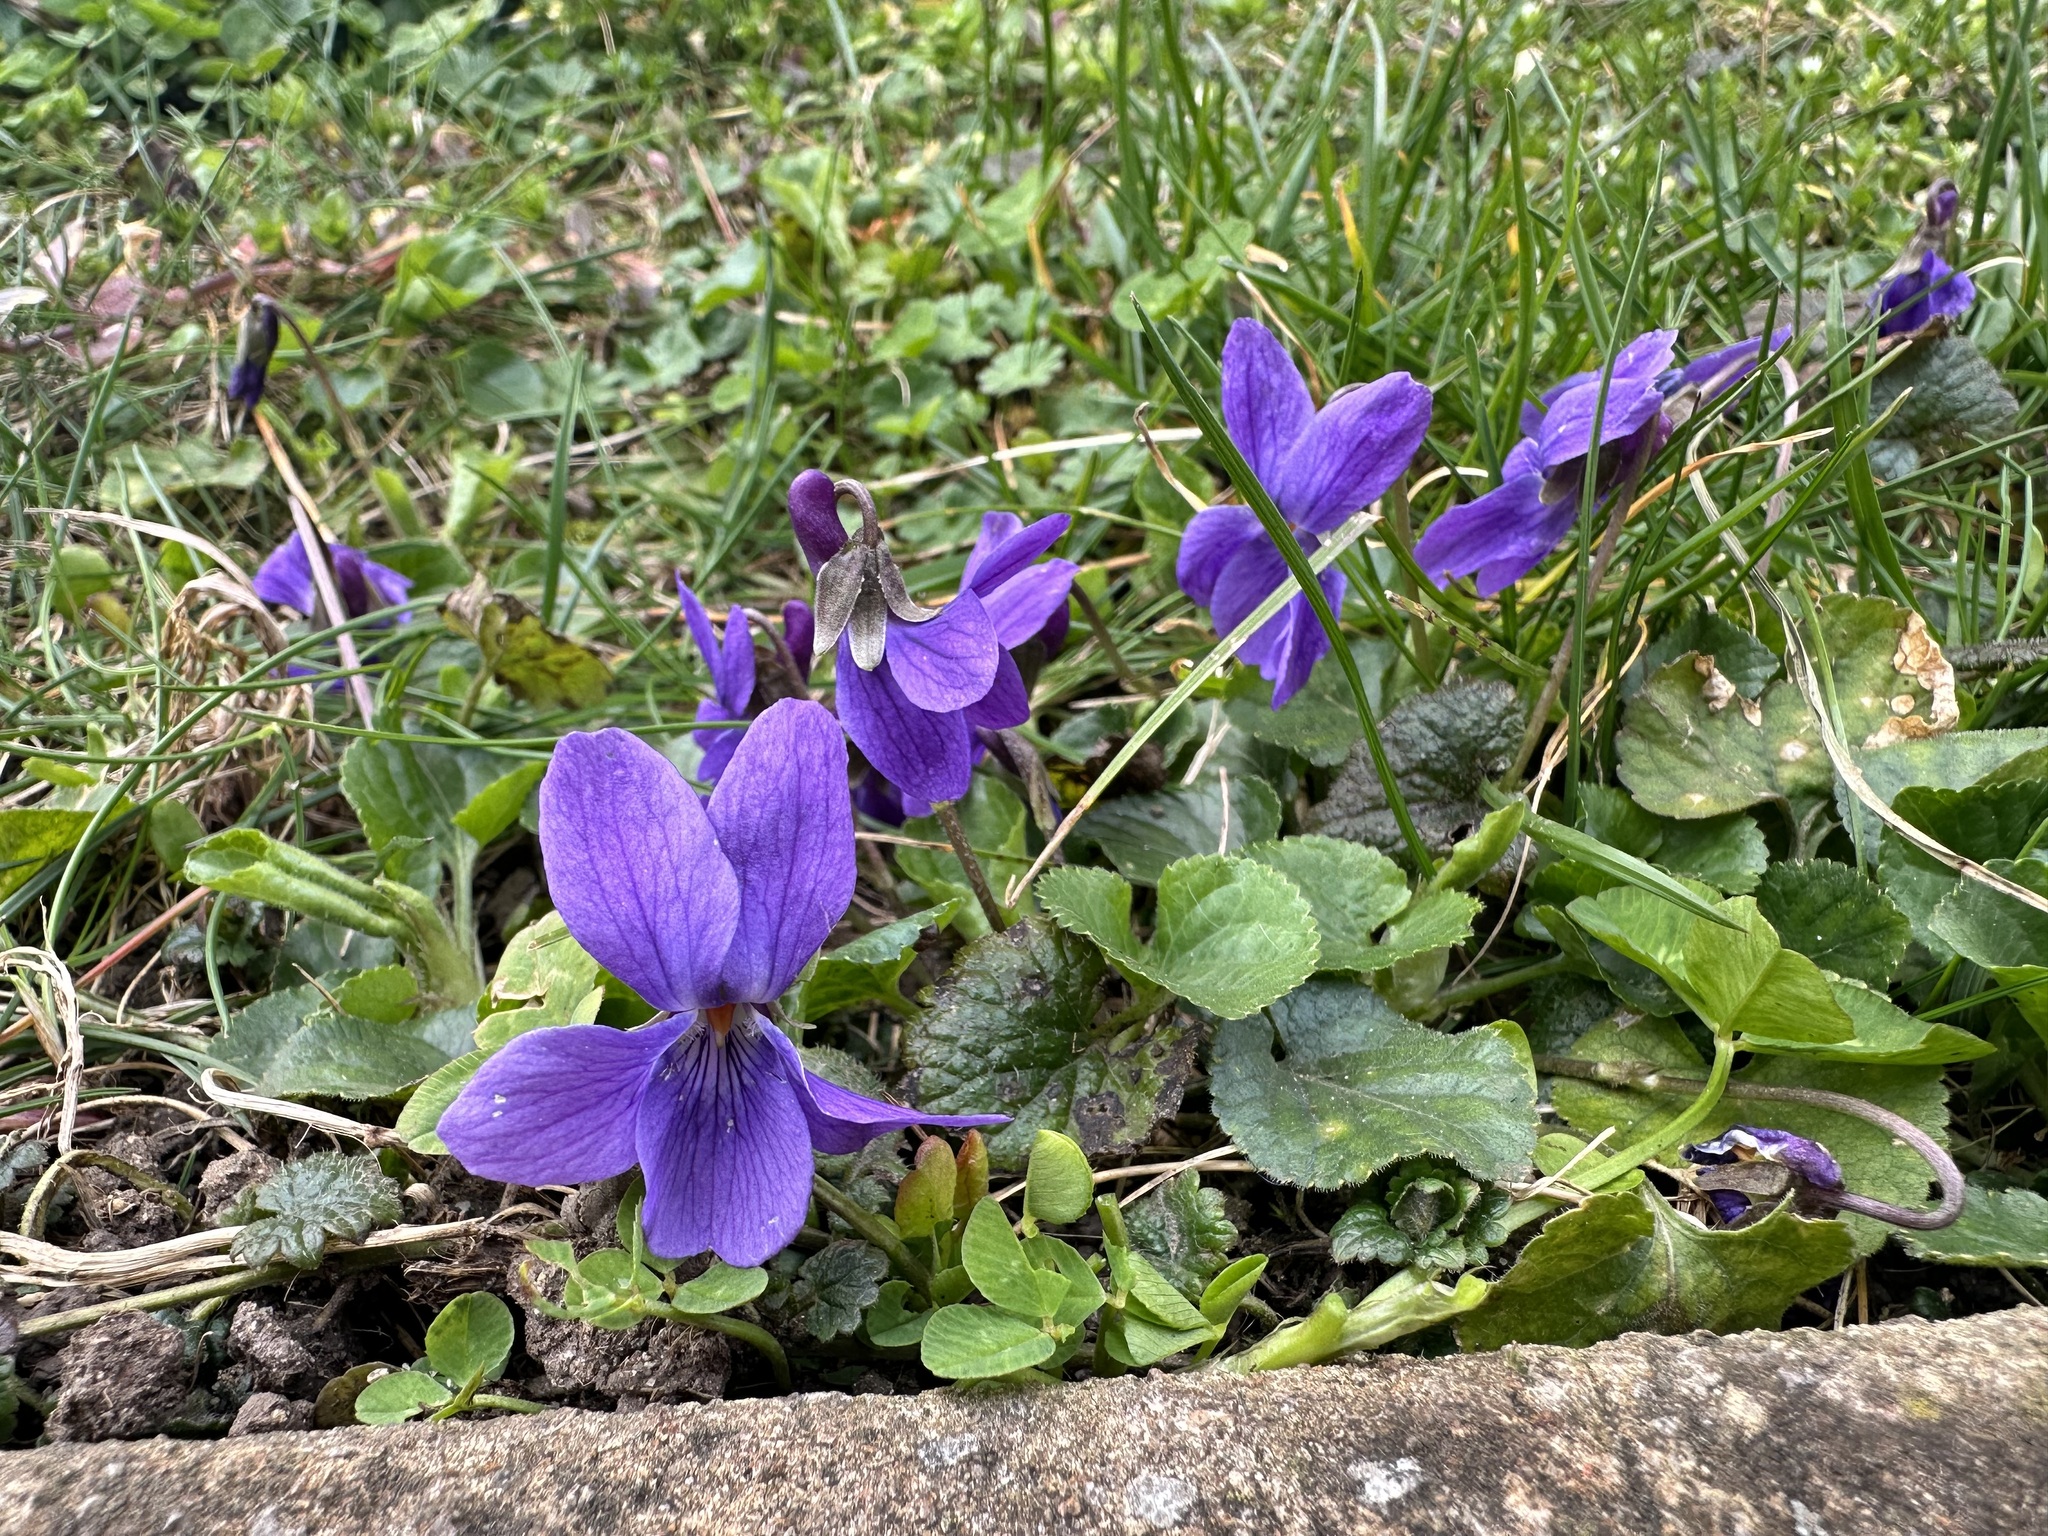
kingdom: Plantae
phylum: Tracheophyta
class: Magnoliopsida
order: Malpighiales
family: Violaceae
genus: Viola
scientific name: Viola odorata
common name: Sweet violet
